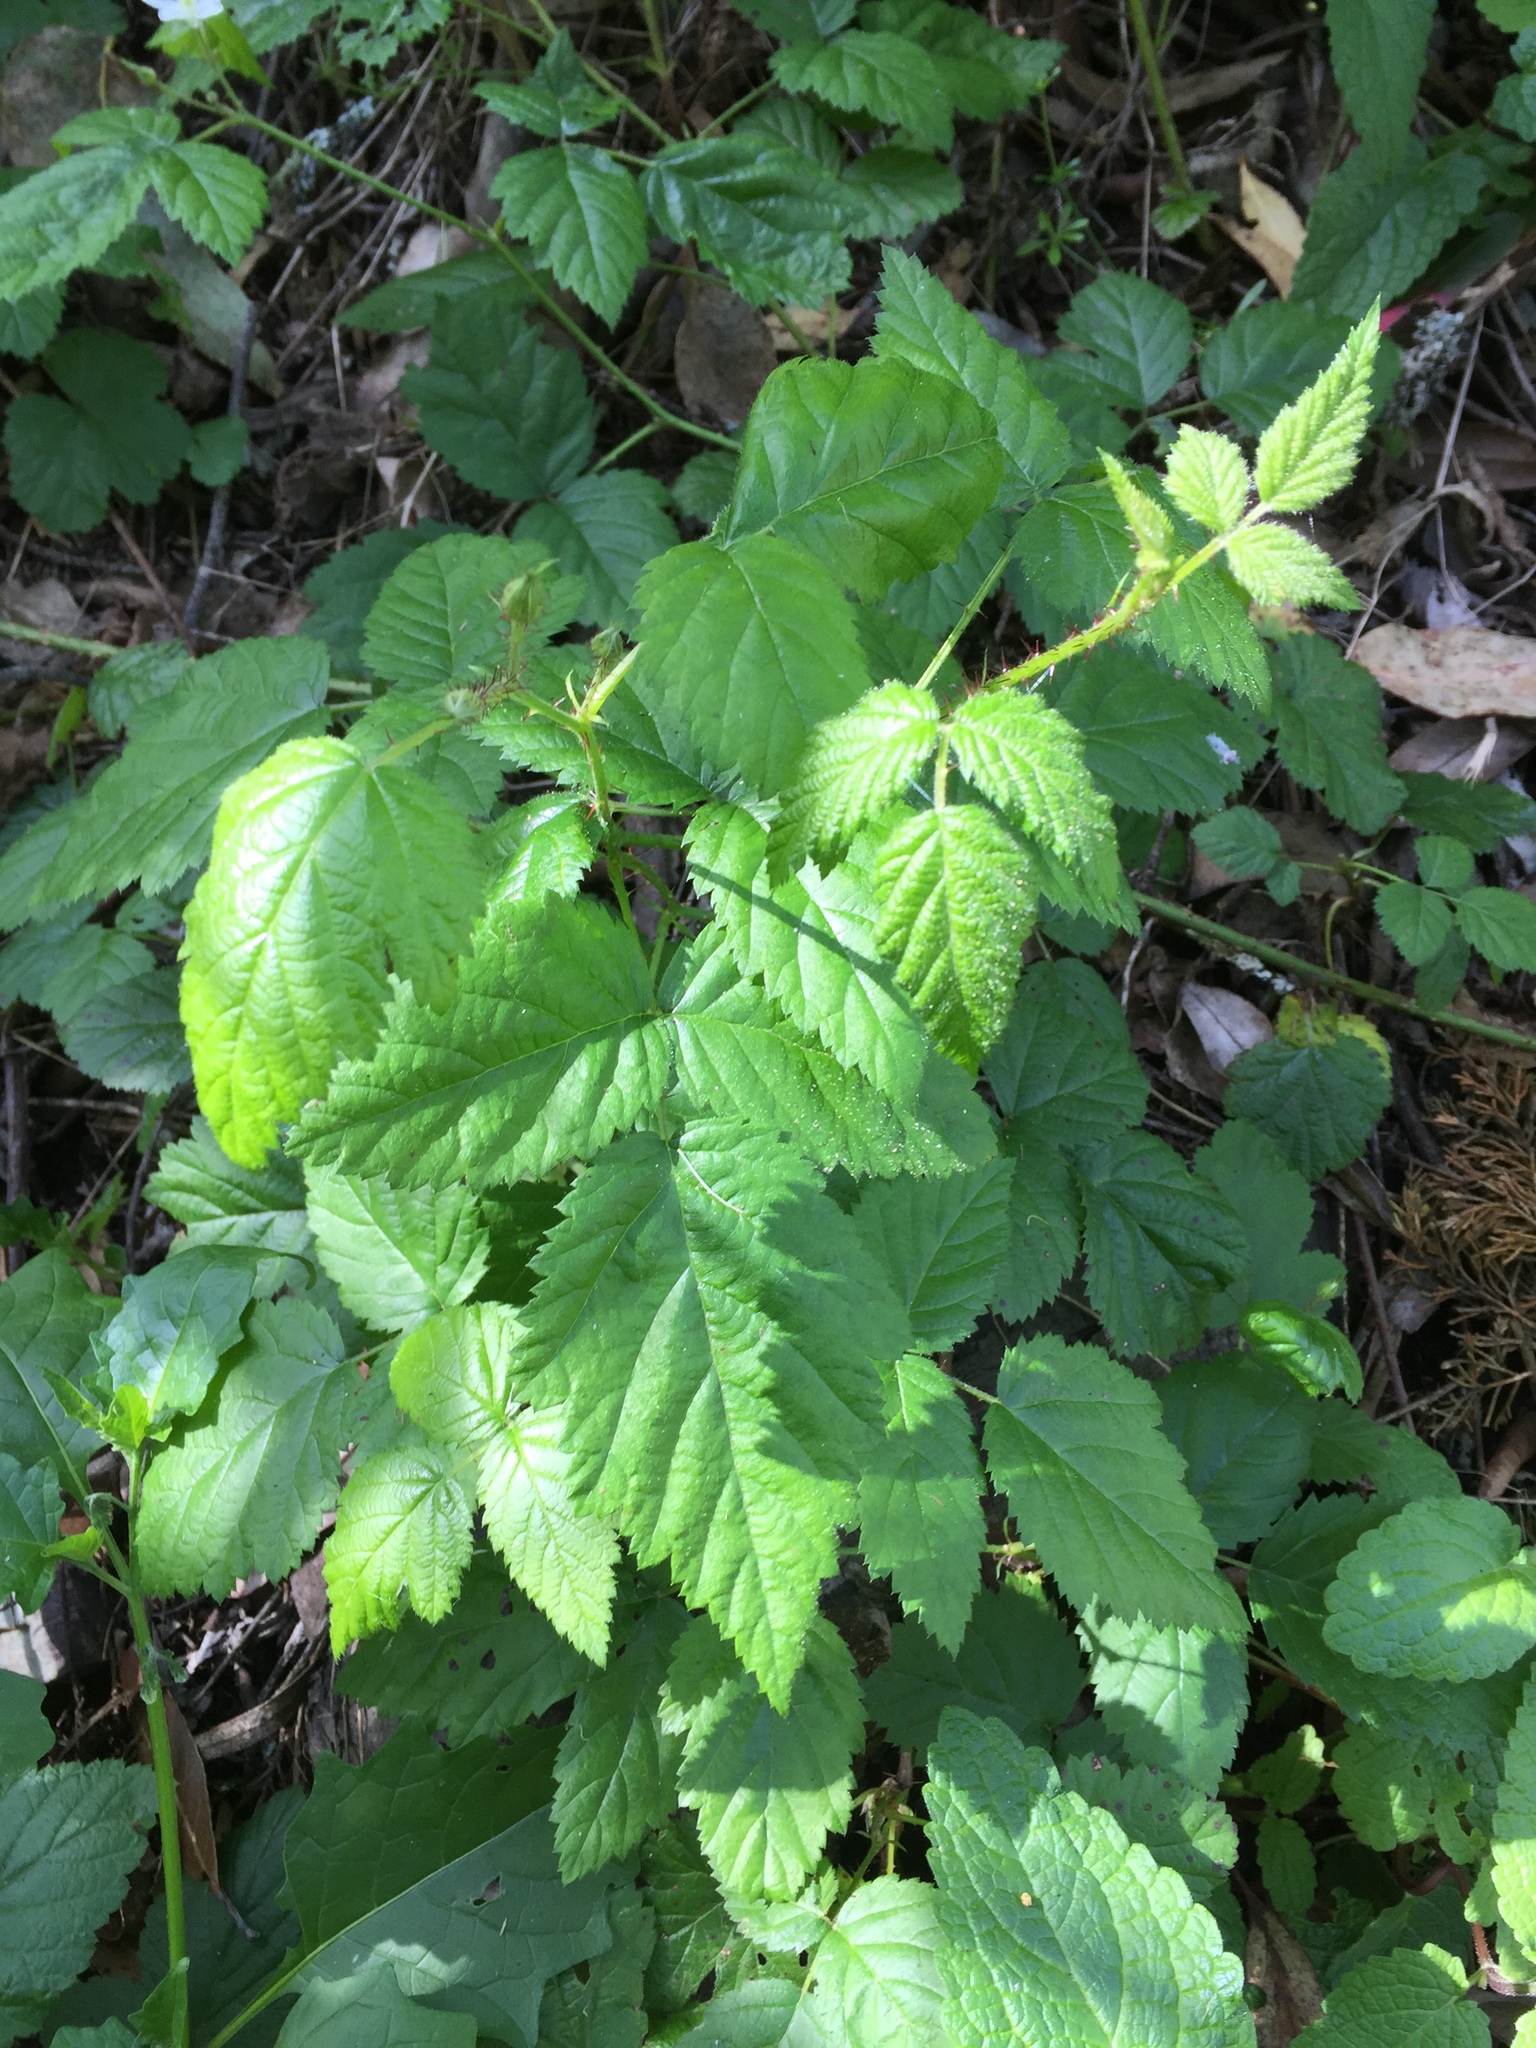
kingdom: Plantae
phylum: Tracheophyta
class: Magnoliopsida
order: Rosales
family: Rosaceae
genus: Rubus
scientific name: Rubus ursinus
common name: Pacific blackberry
